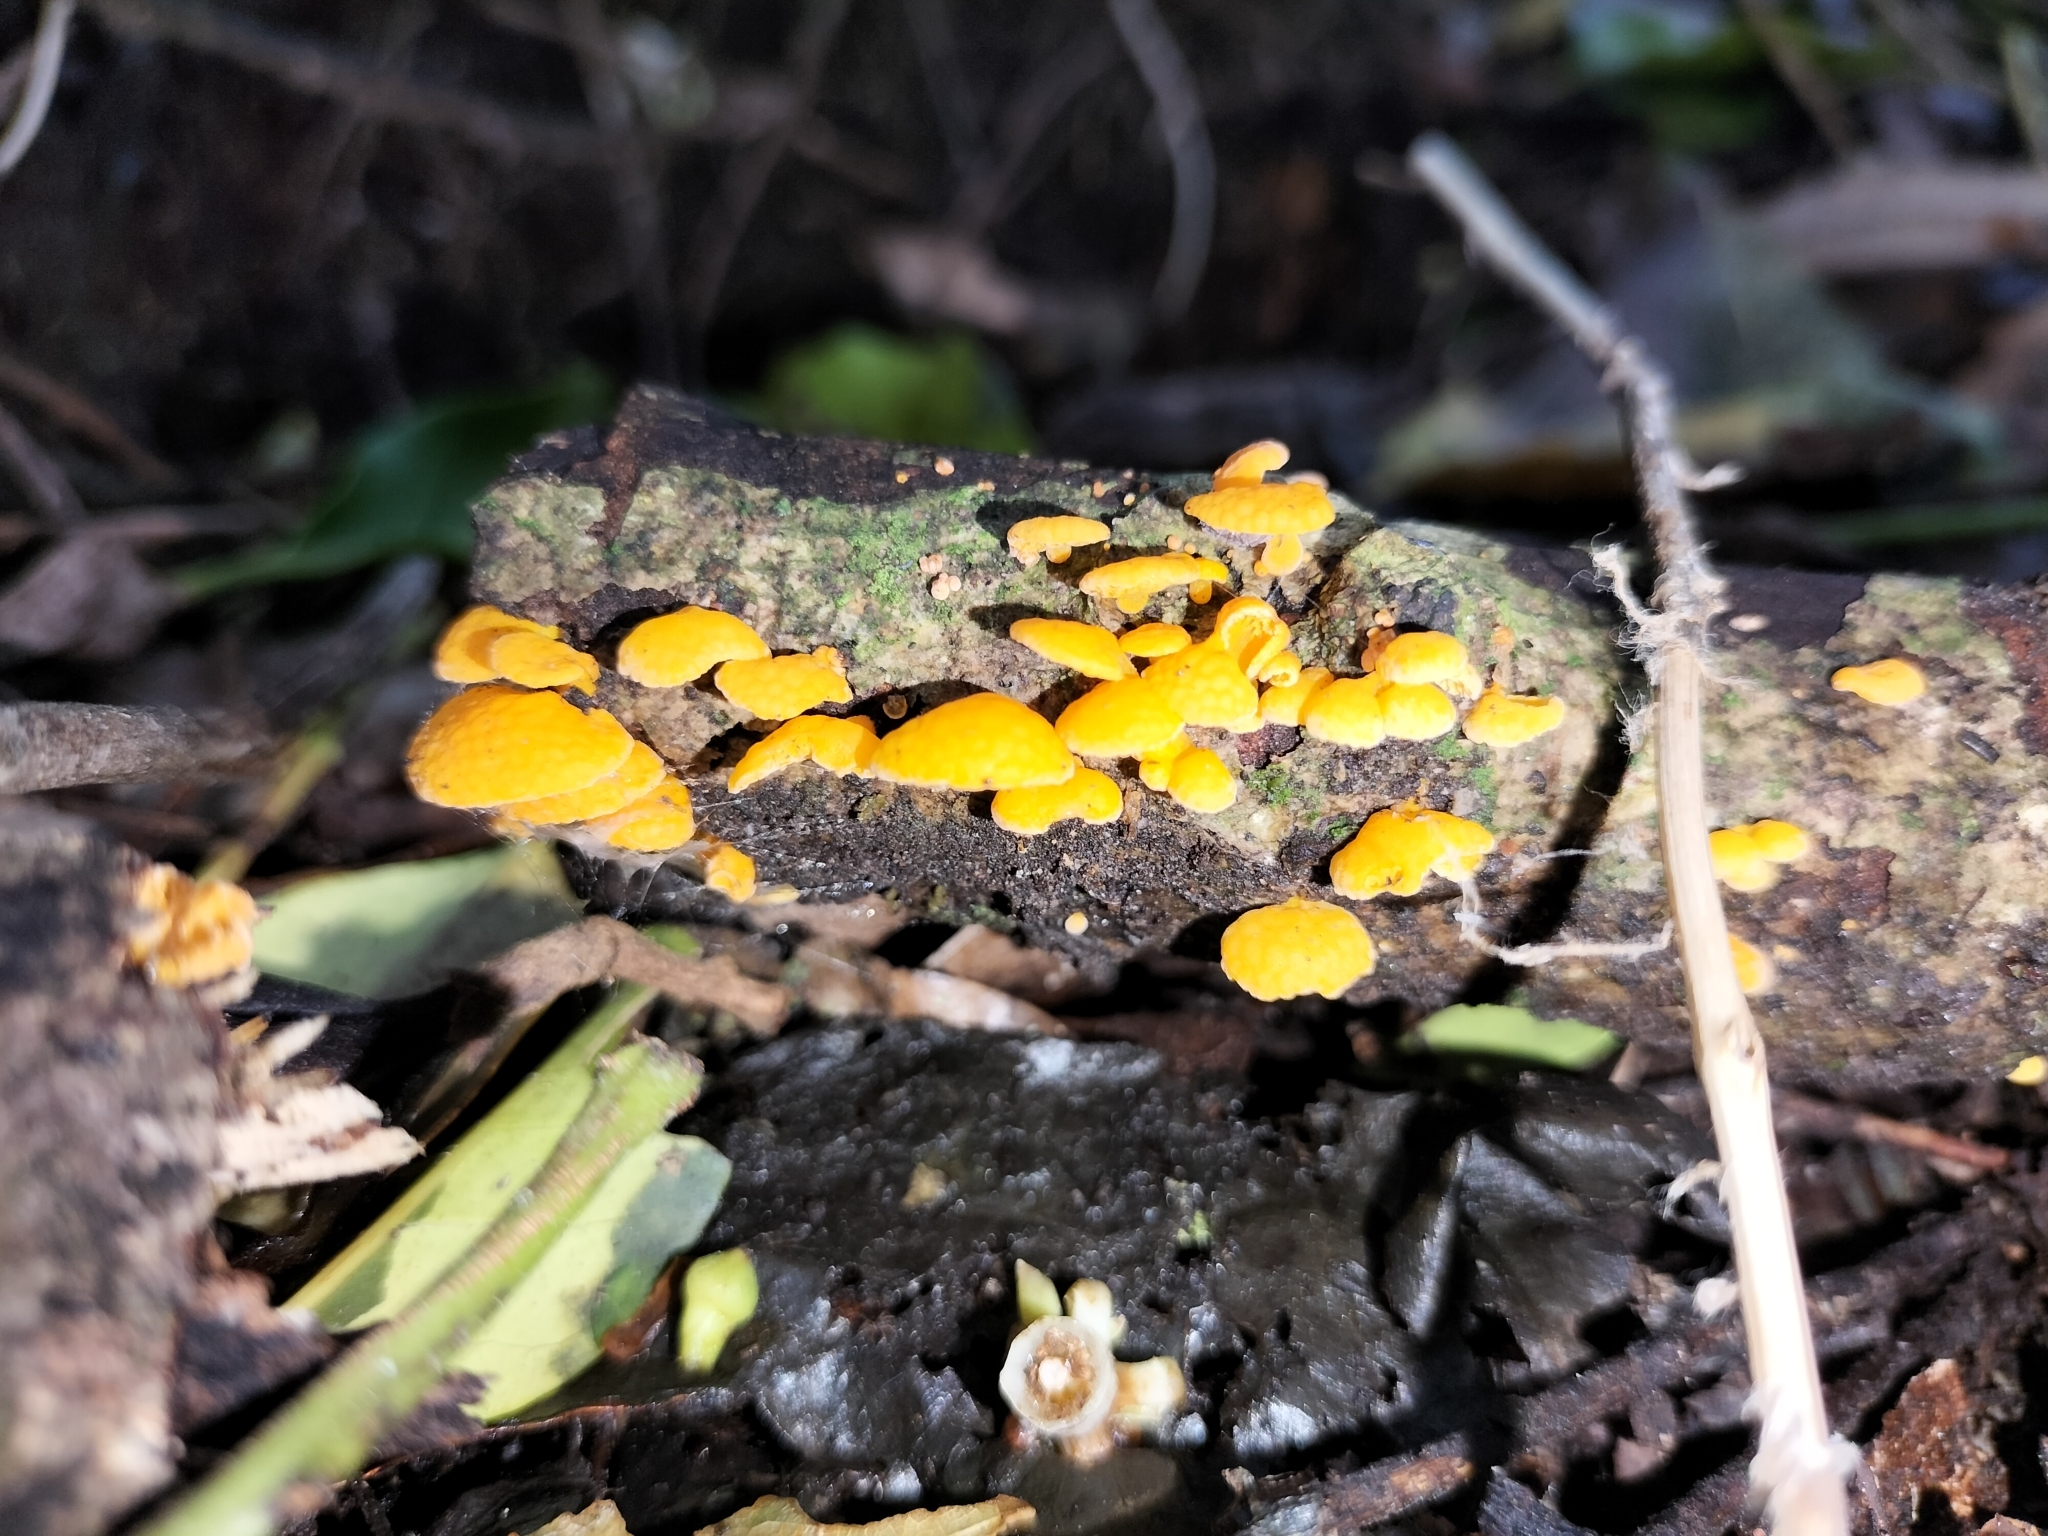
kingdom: Fungi
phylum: Basidiomycota
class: Agaricomycetes
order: Agaricales
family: Mycenaceae
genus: Favolaschia
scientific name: Favolaschia claudopus
